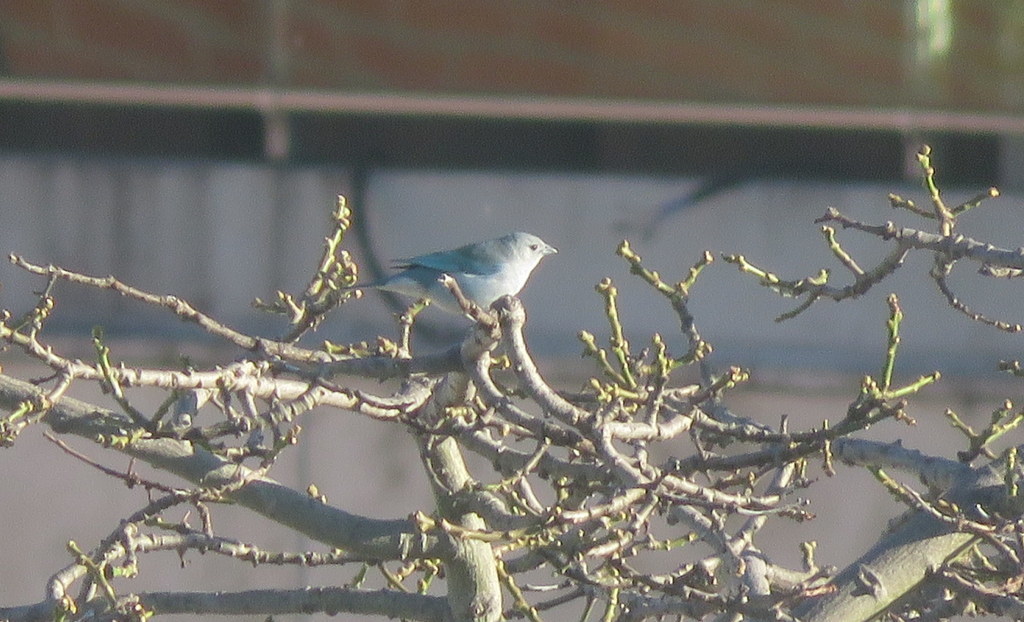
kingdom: Animalia
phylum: Chordata
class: Aves
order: Passeriformes
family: Thraupidae
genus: Thraupis
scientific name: Thraupis sayaca
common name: Sayaca tanager
